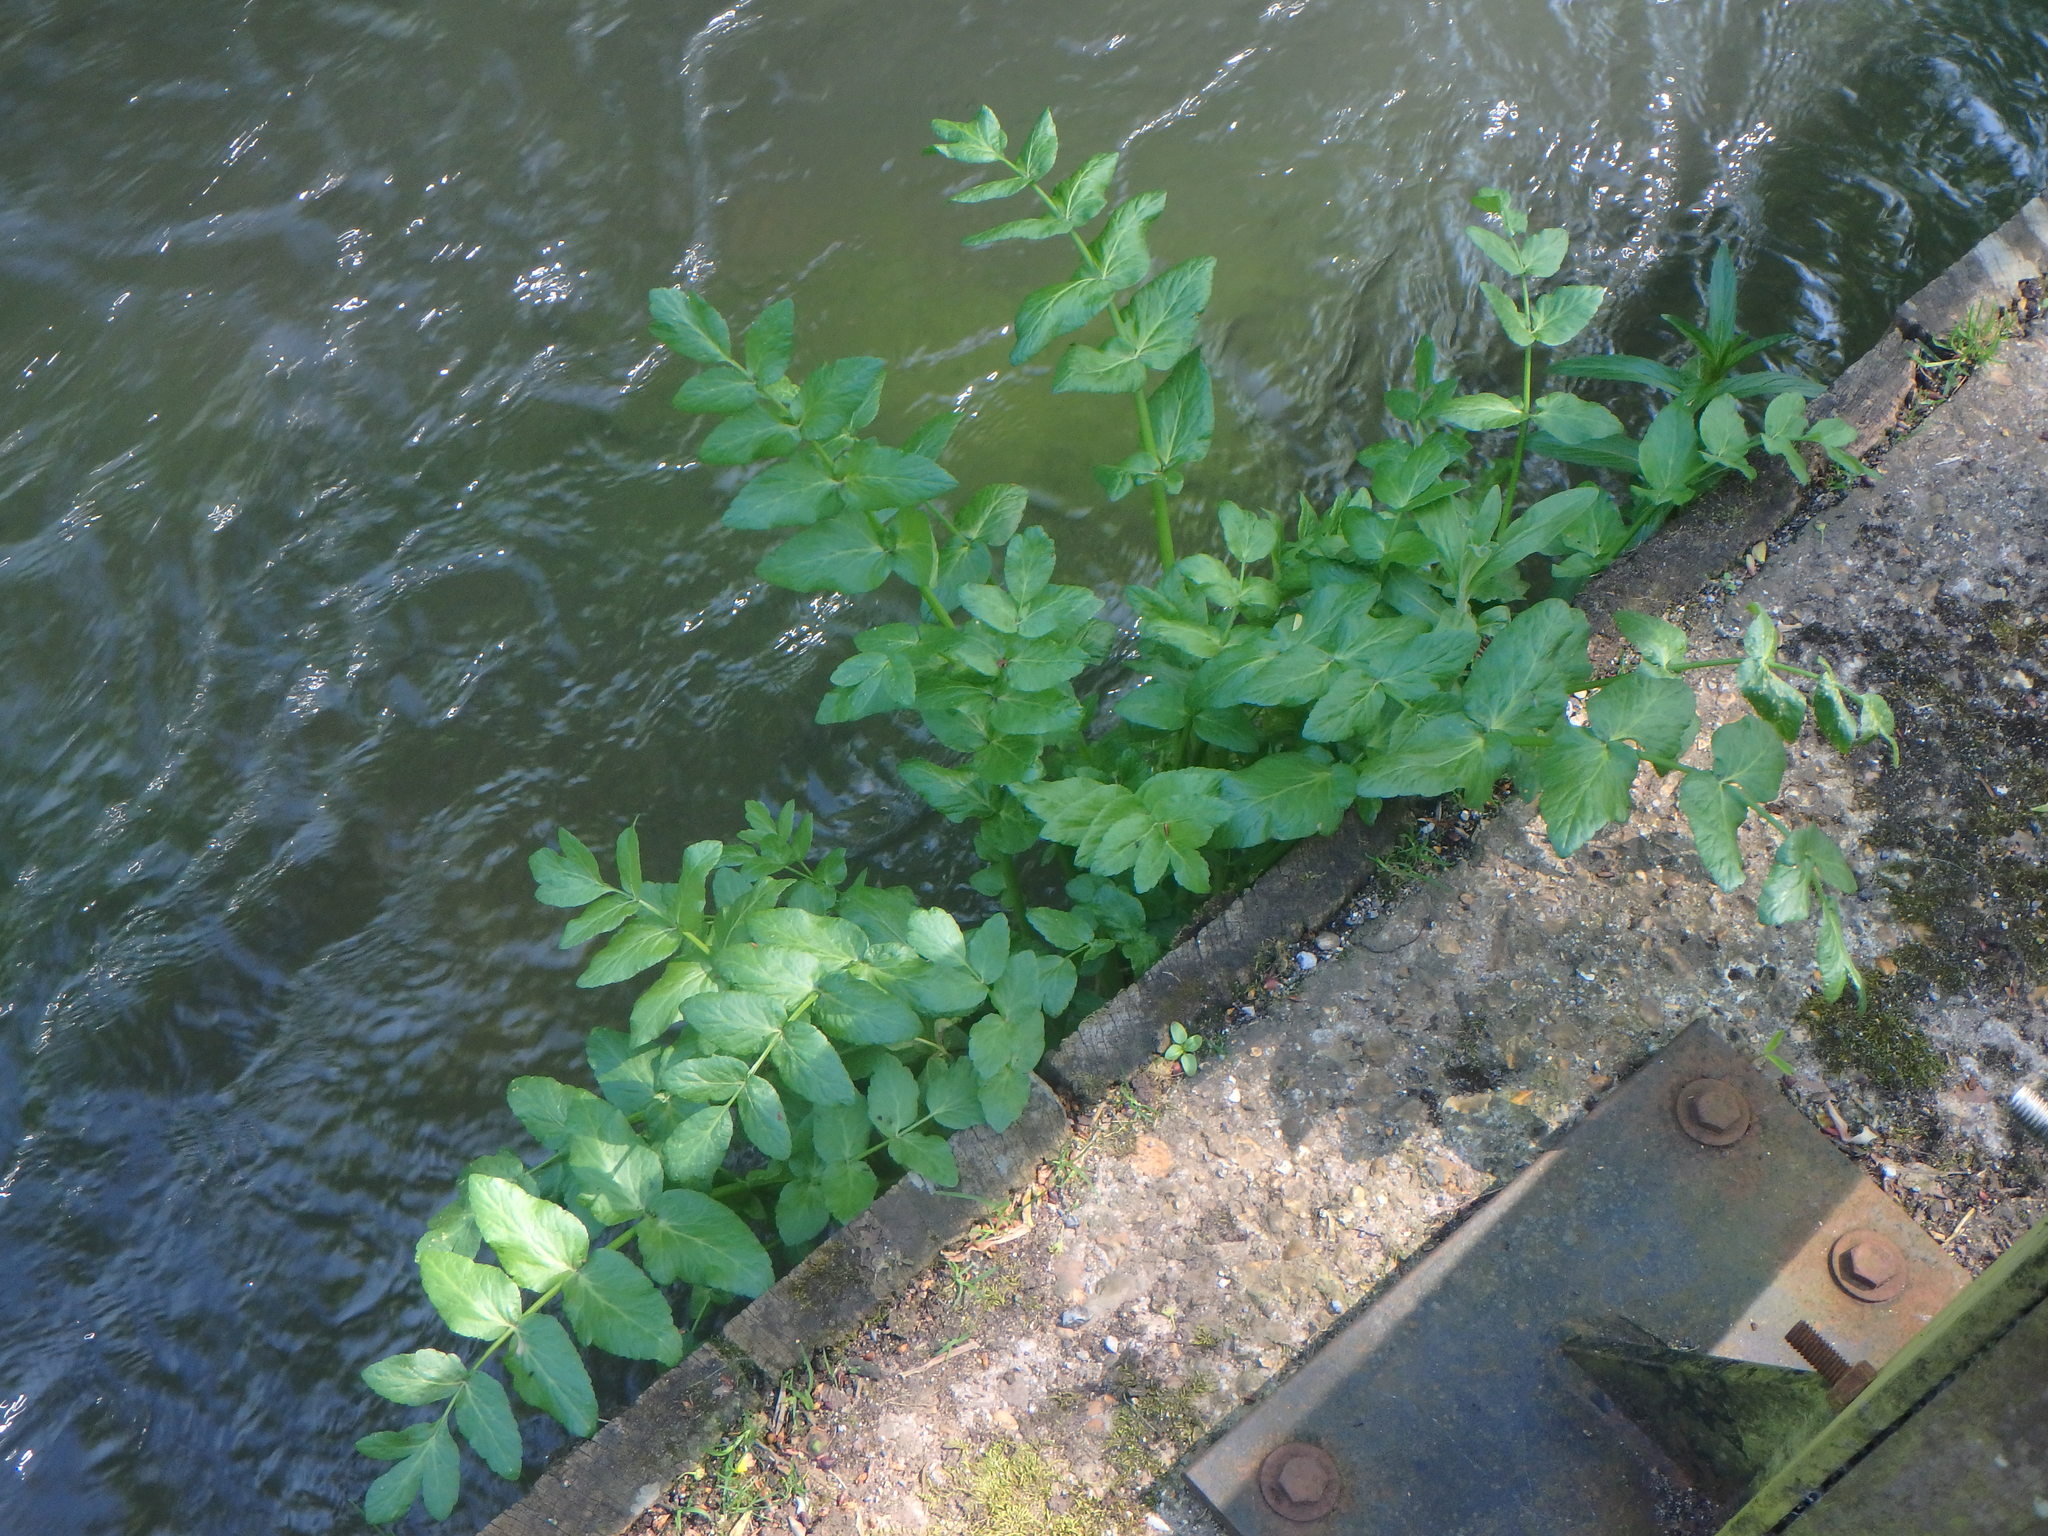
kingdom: Plantae
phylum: Tracheophyta
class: Magnoliopsida
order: Apiales
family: Apiaceae
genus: Helosciadium
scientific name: Helosciadium nodiflorum
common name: Fool's-watercress
